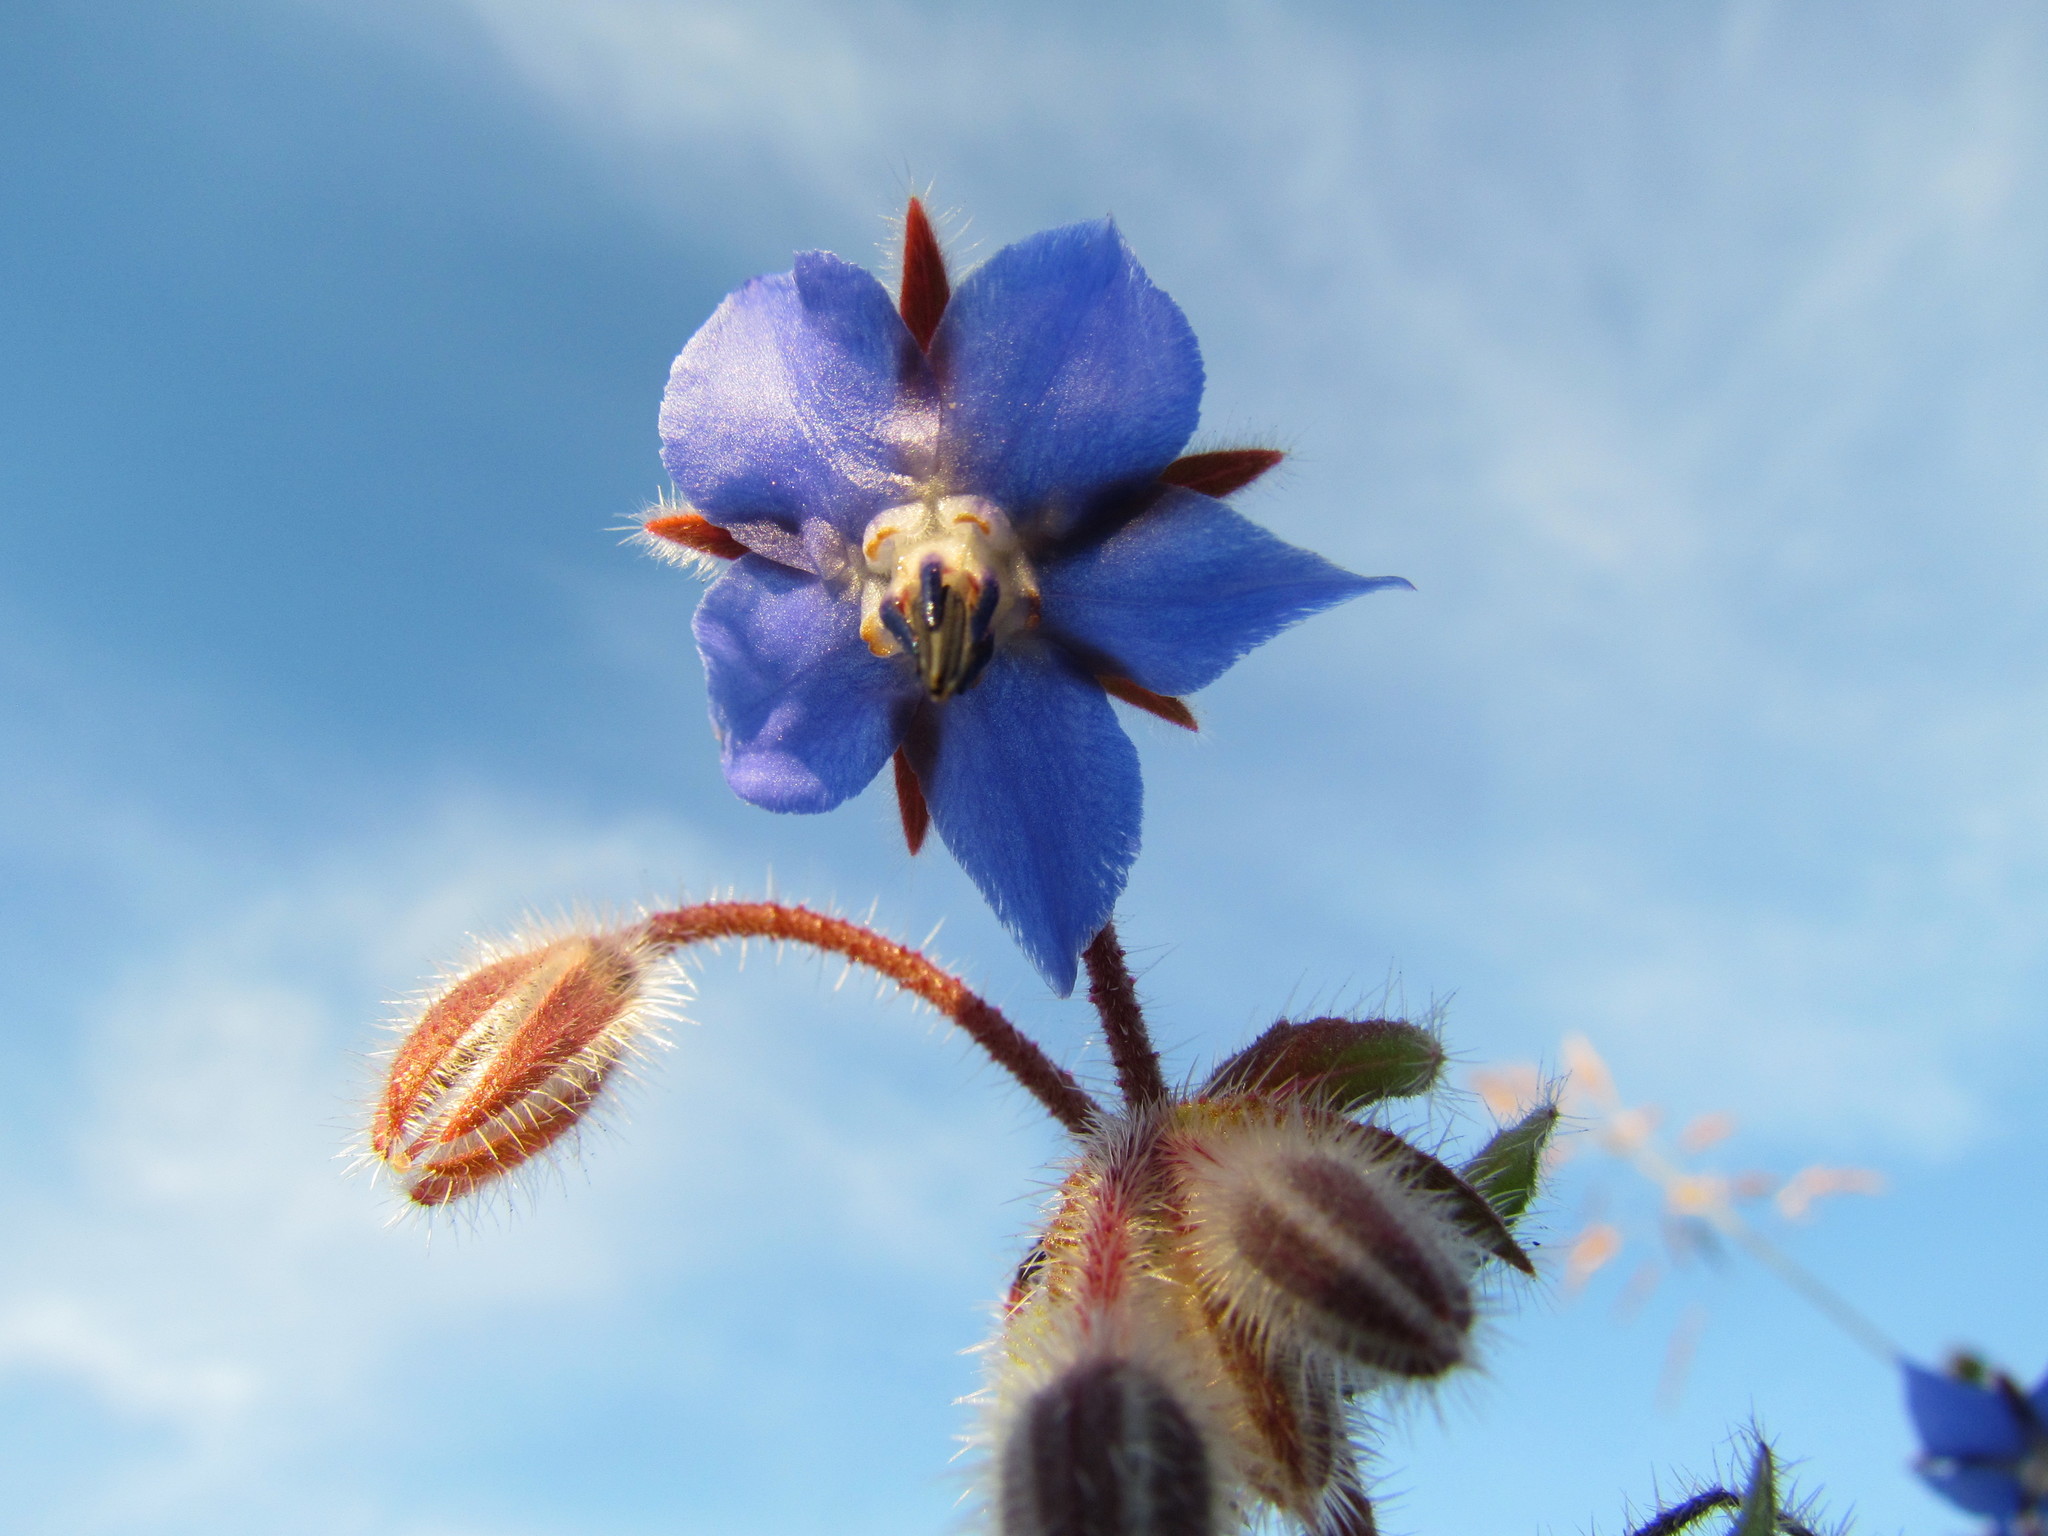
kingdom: Plantae
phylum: Tracheophyta
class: Magnoliopsida
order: Boraginales
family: Boraginaceae
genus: Borago
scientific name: Borago officinalis
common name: Borage
